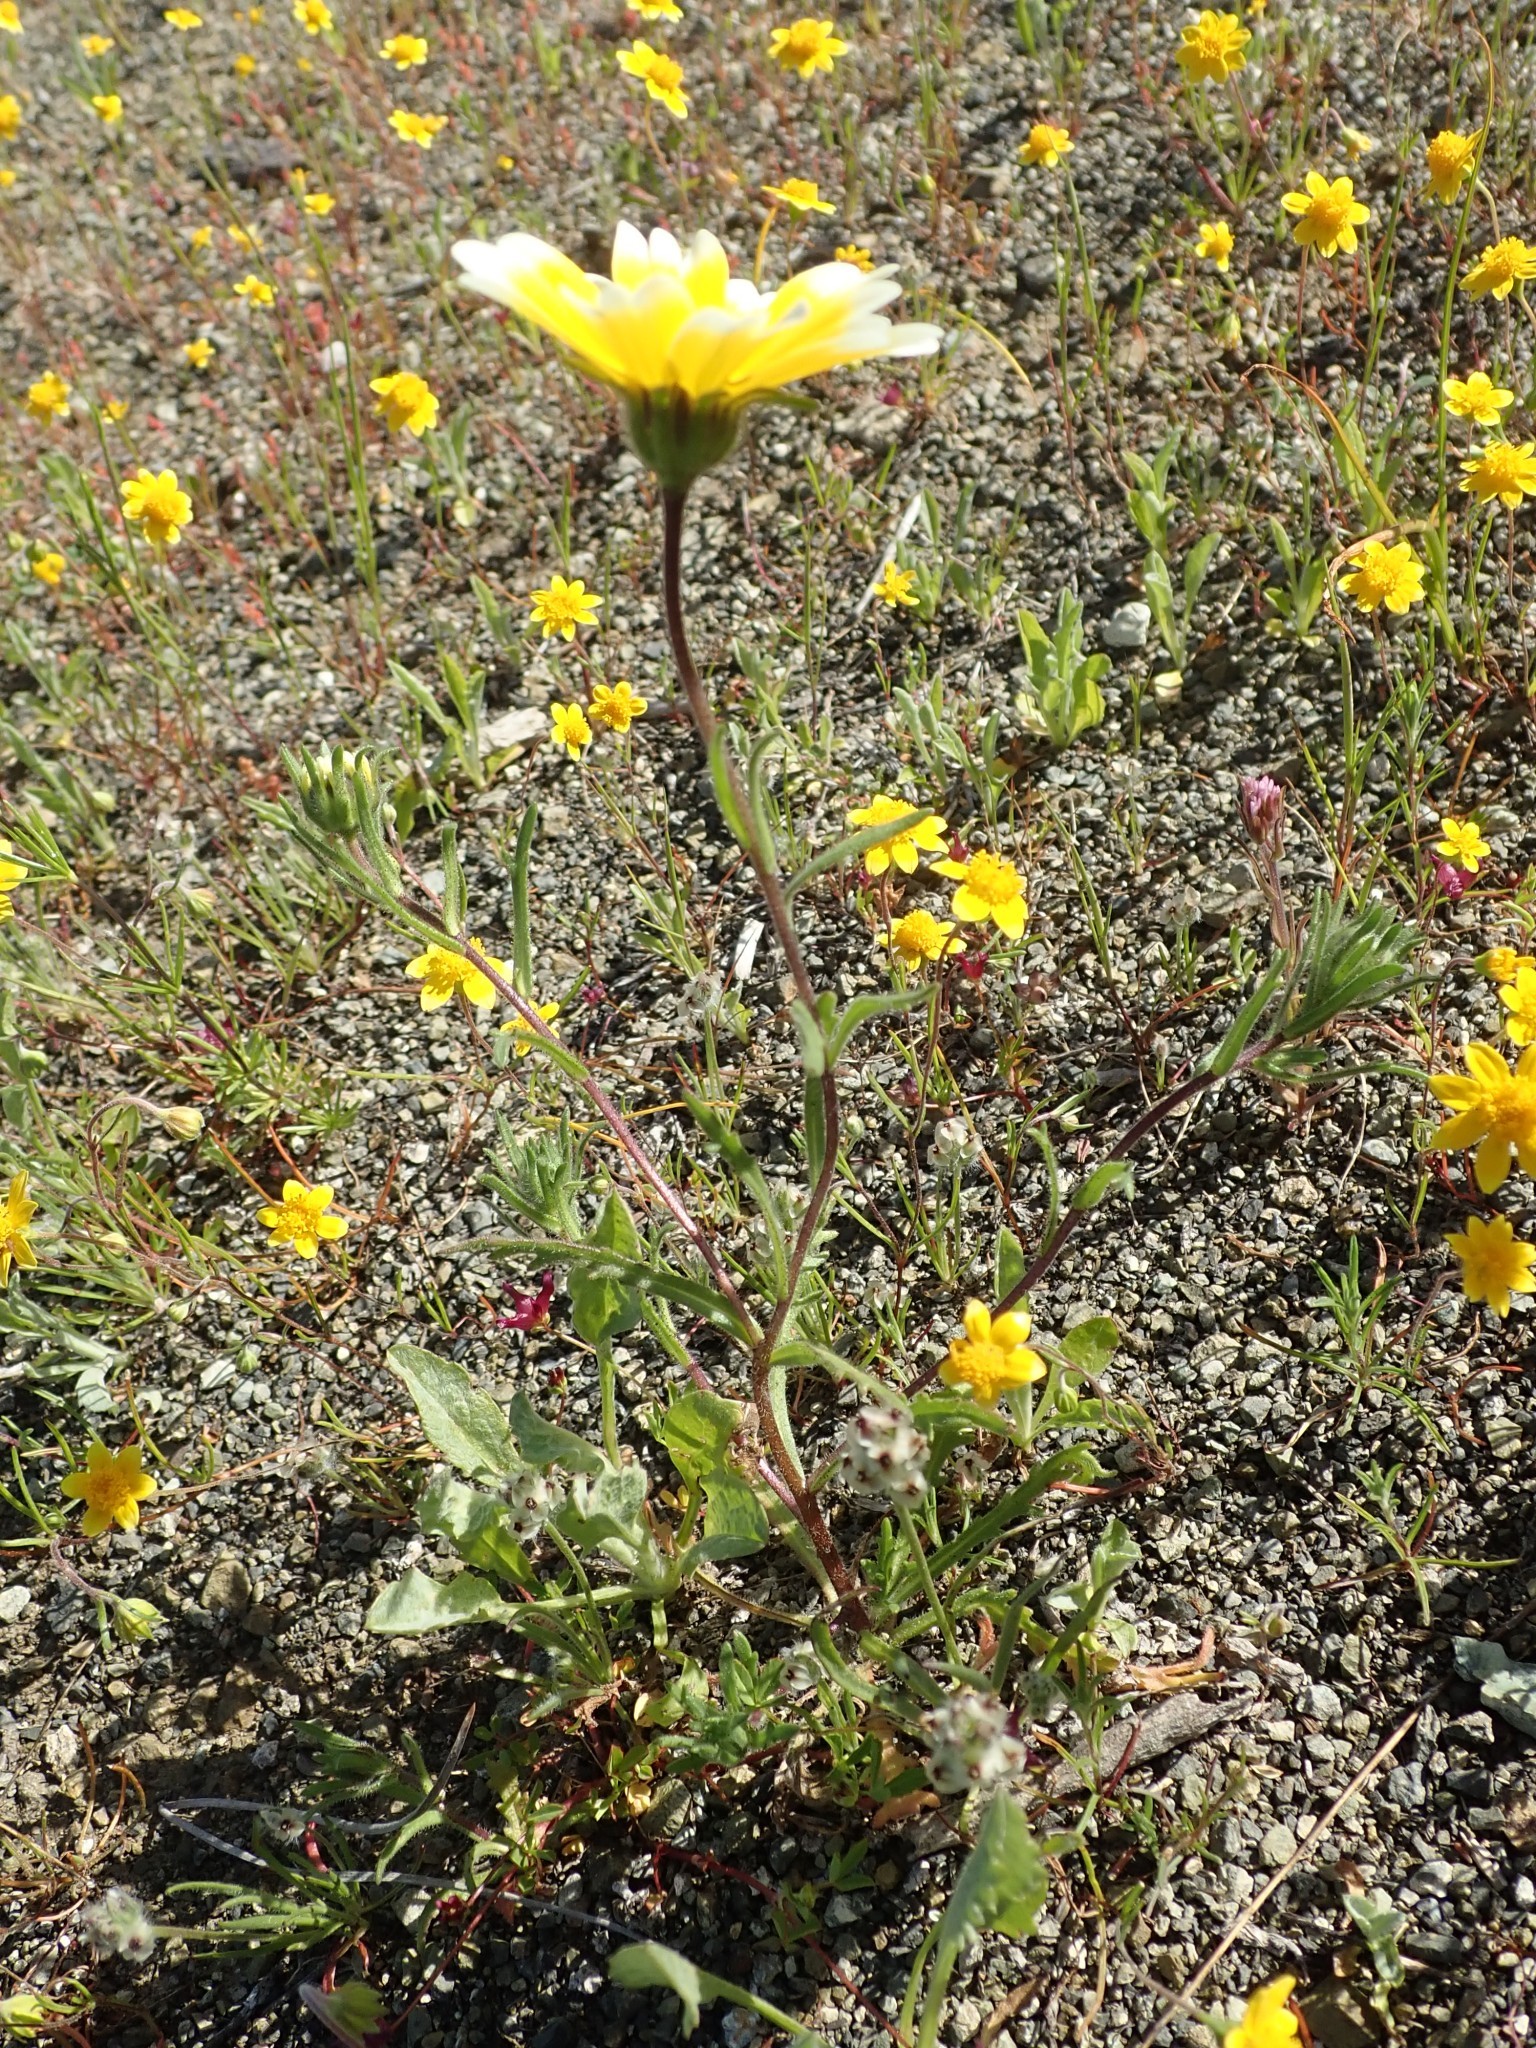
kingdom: Plantae
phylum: Tracheophyta
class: Magnoliopsida
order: Asterales
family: Asteraceae
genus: Layia
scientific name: Layia platyglossa
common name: Tidy-tips
